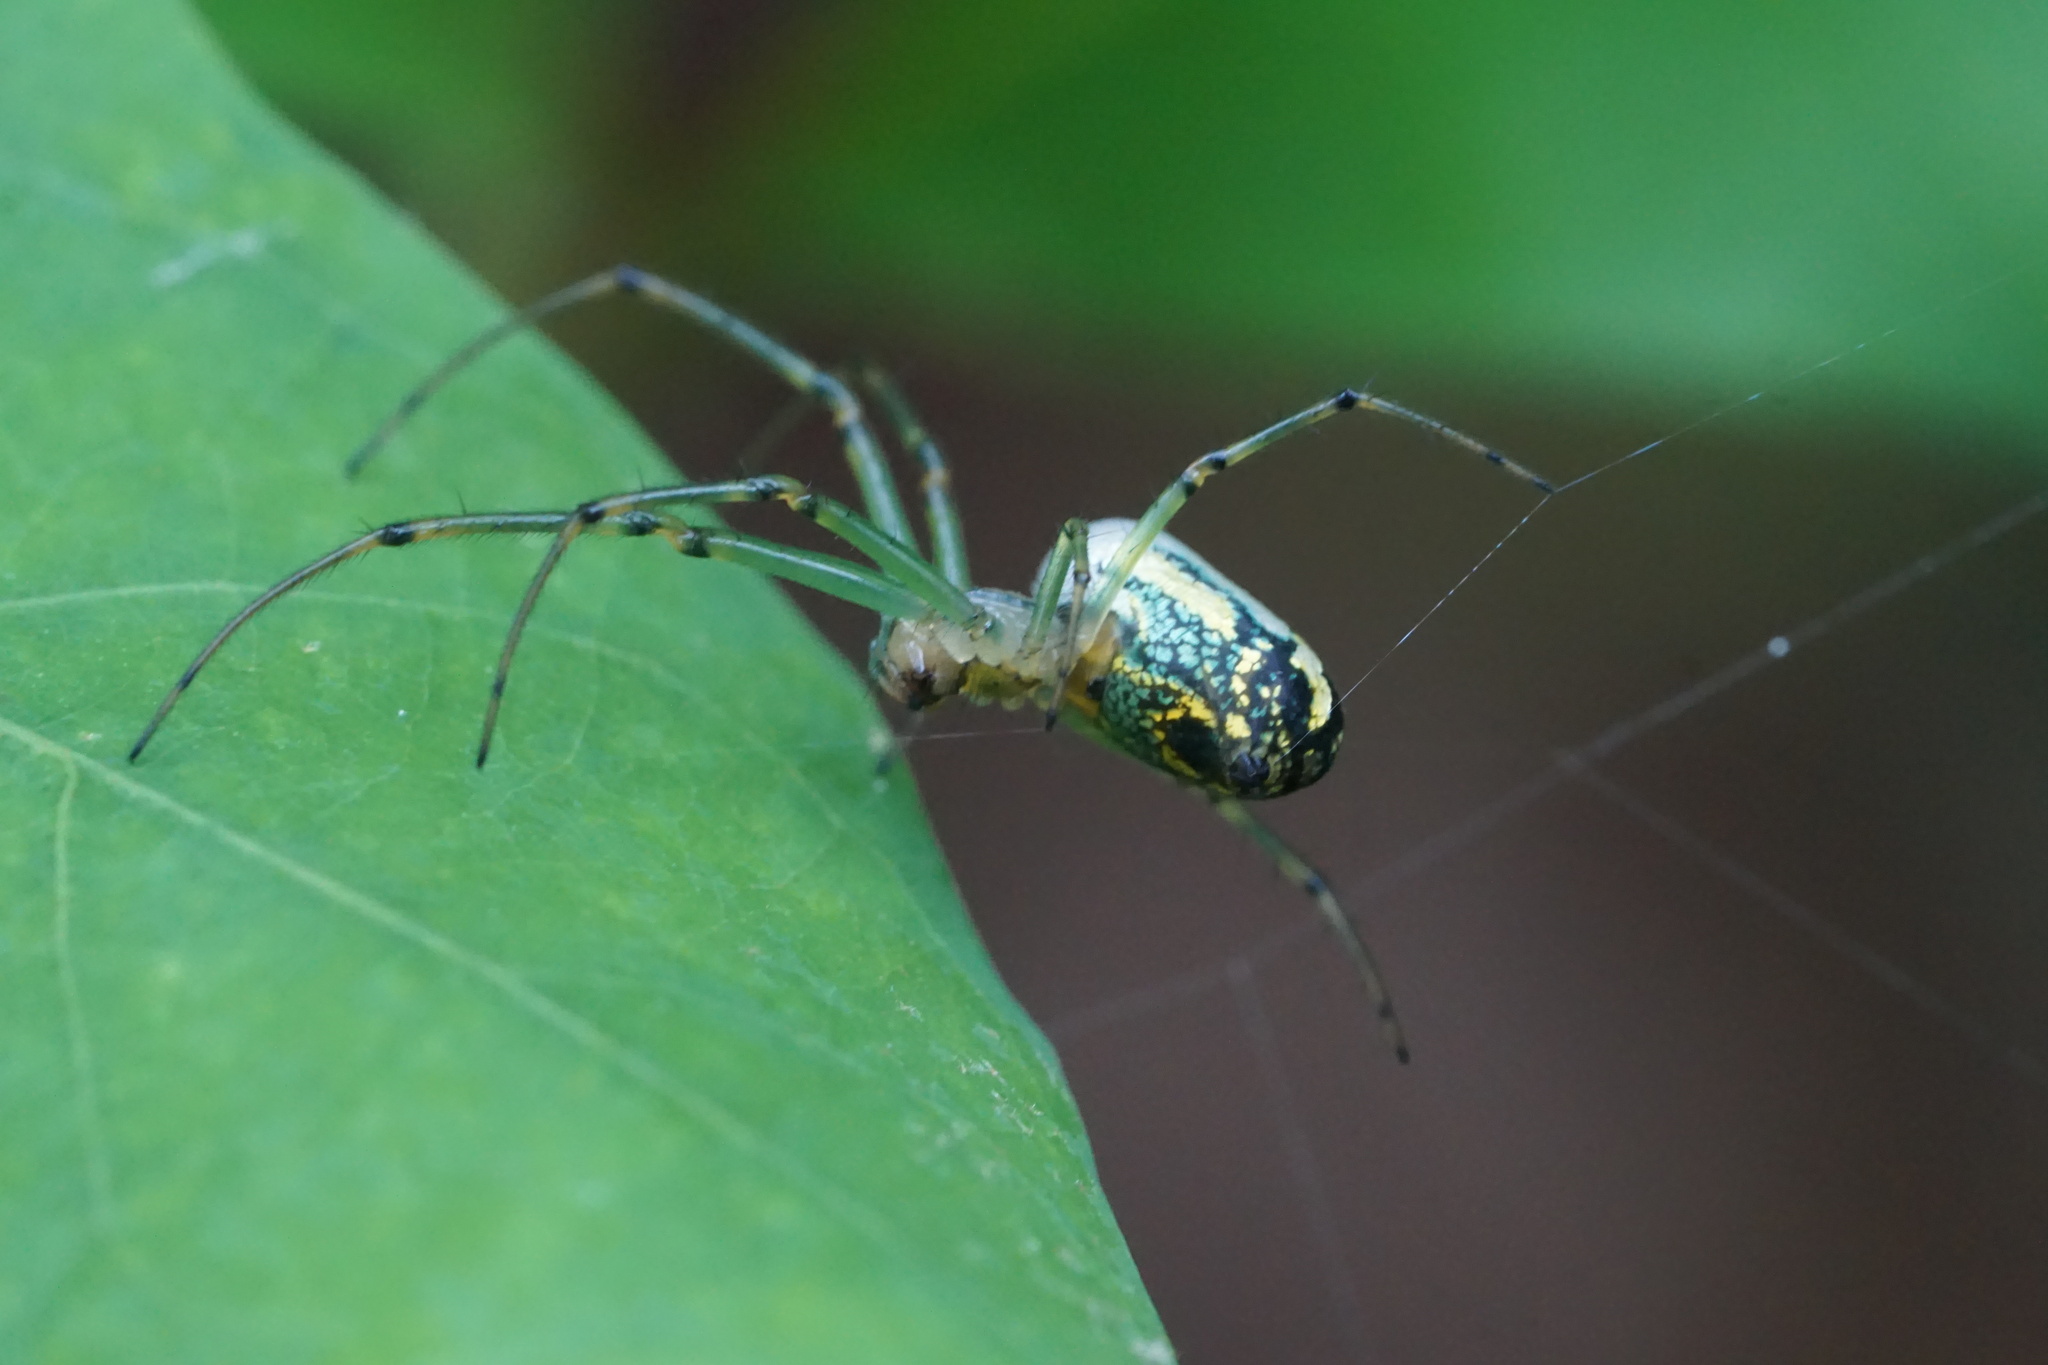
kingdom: Animalia
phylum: Arthropoda
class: Arachnida
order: Araneae
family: Tetragnathidae
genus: Leucauge
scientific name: Leucauge venusta
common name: Longjawed orb weavers
